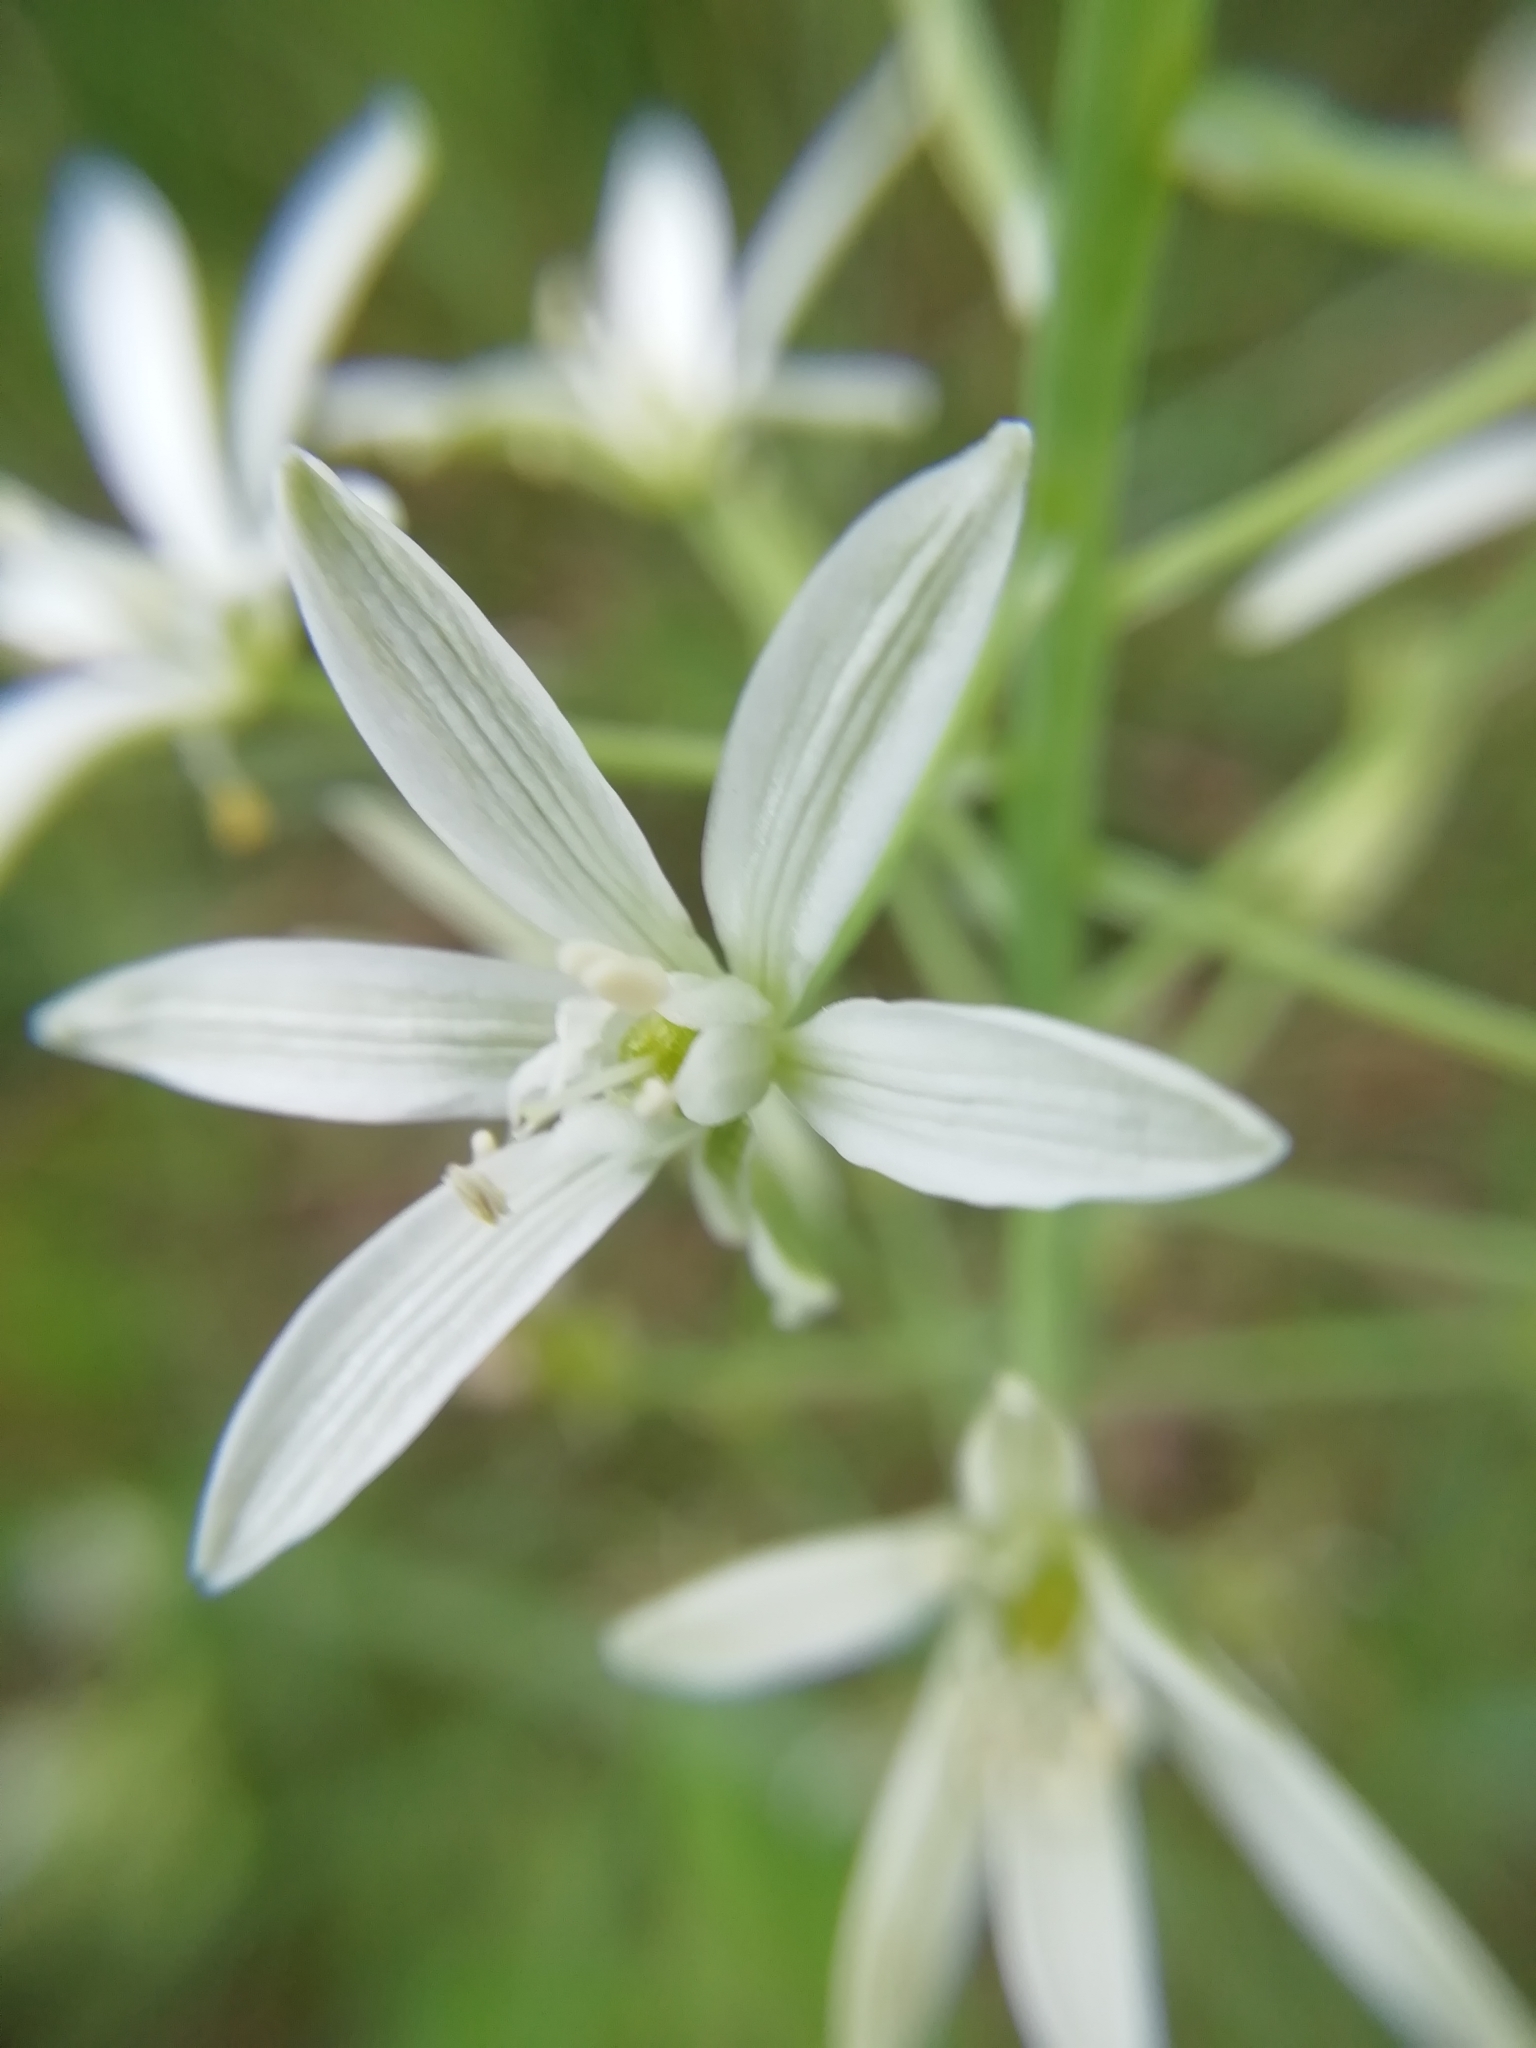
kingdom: Plantae
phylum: Tracheophyta
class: Liliopsida
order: Asparagales
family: Asparagaceae
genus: Ornithogalum
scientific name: Ornithogalum narbonense
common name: Bath-asparagus
